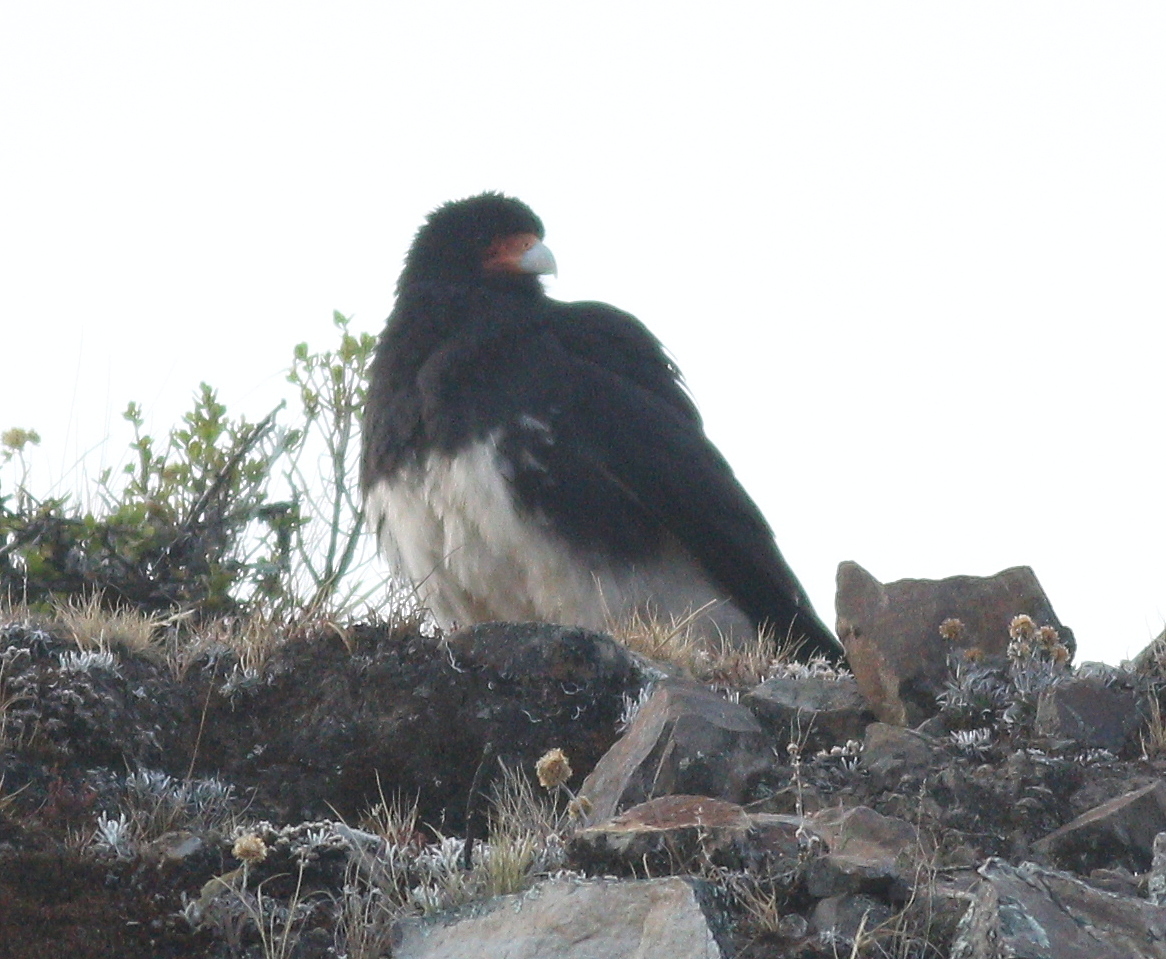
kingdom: Animalia
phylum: Chordata
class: Aves
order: Falconiformes
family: Falconidae
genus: Daptrius
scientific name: Daptrius
